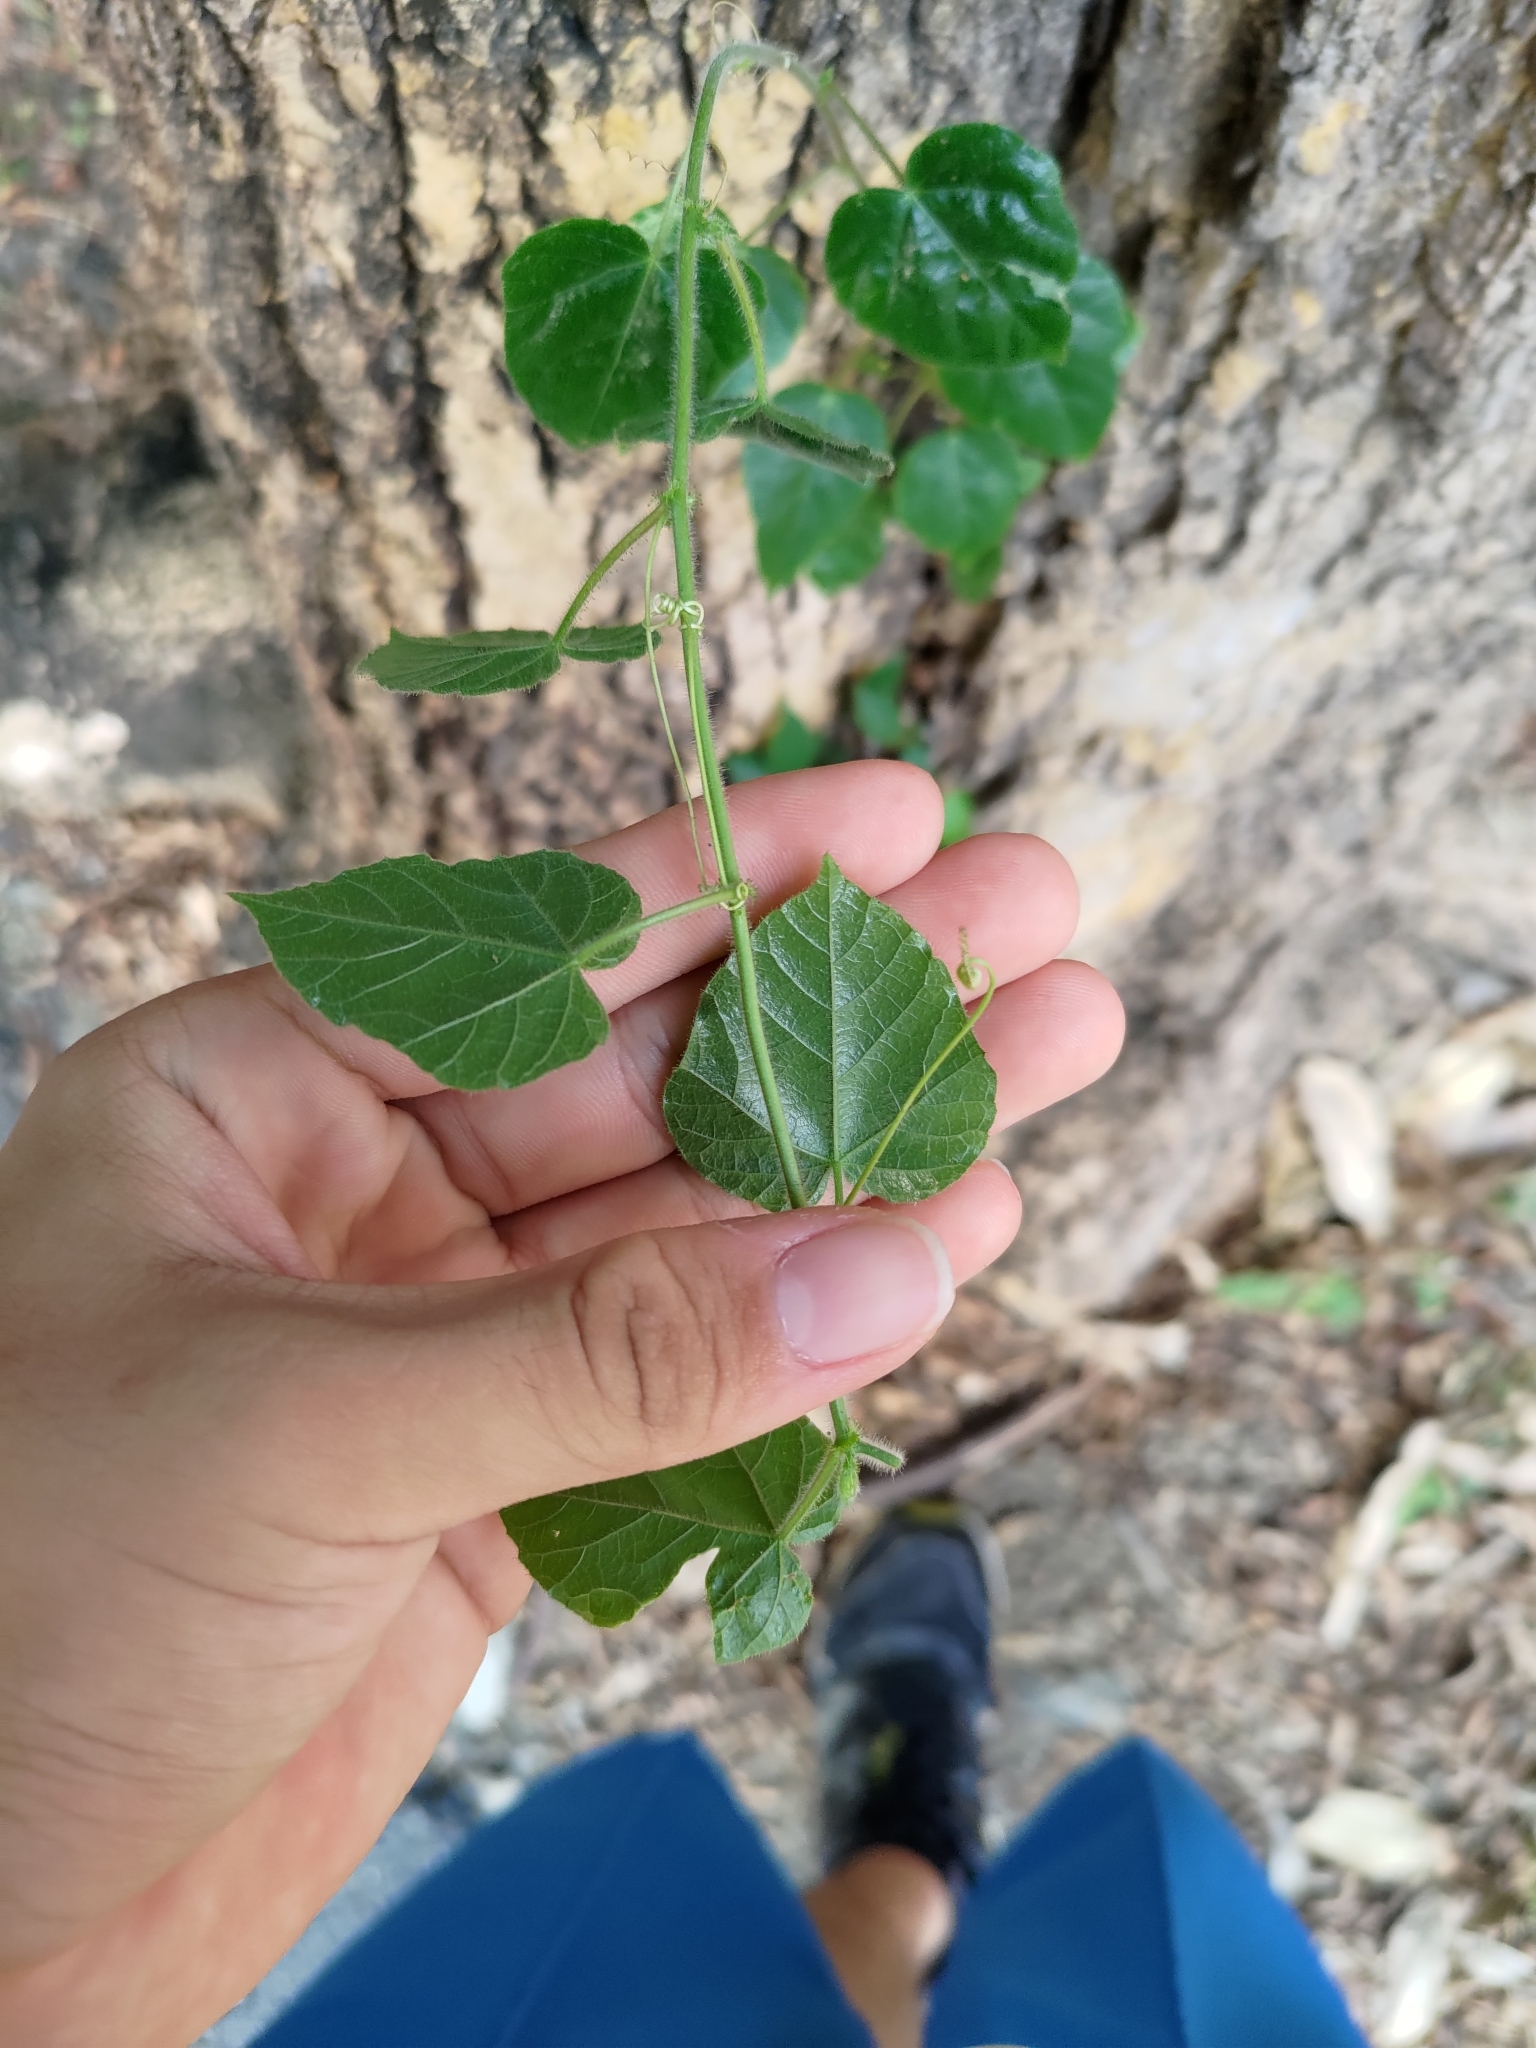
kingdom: Plantae
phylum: Tracheophyta
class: Magnoliopsida
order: Malpighiales
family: Passifloraceae
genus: Passiflora
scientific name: Passiflora vesicaria
